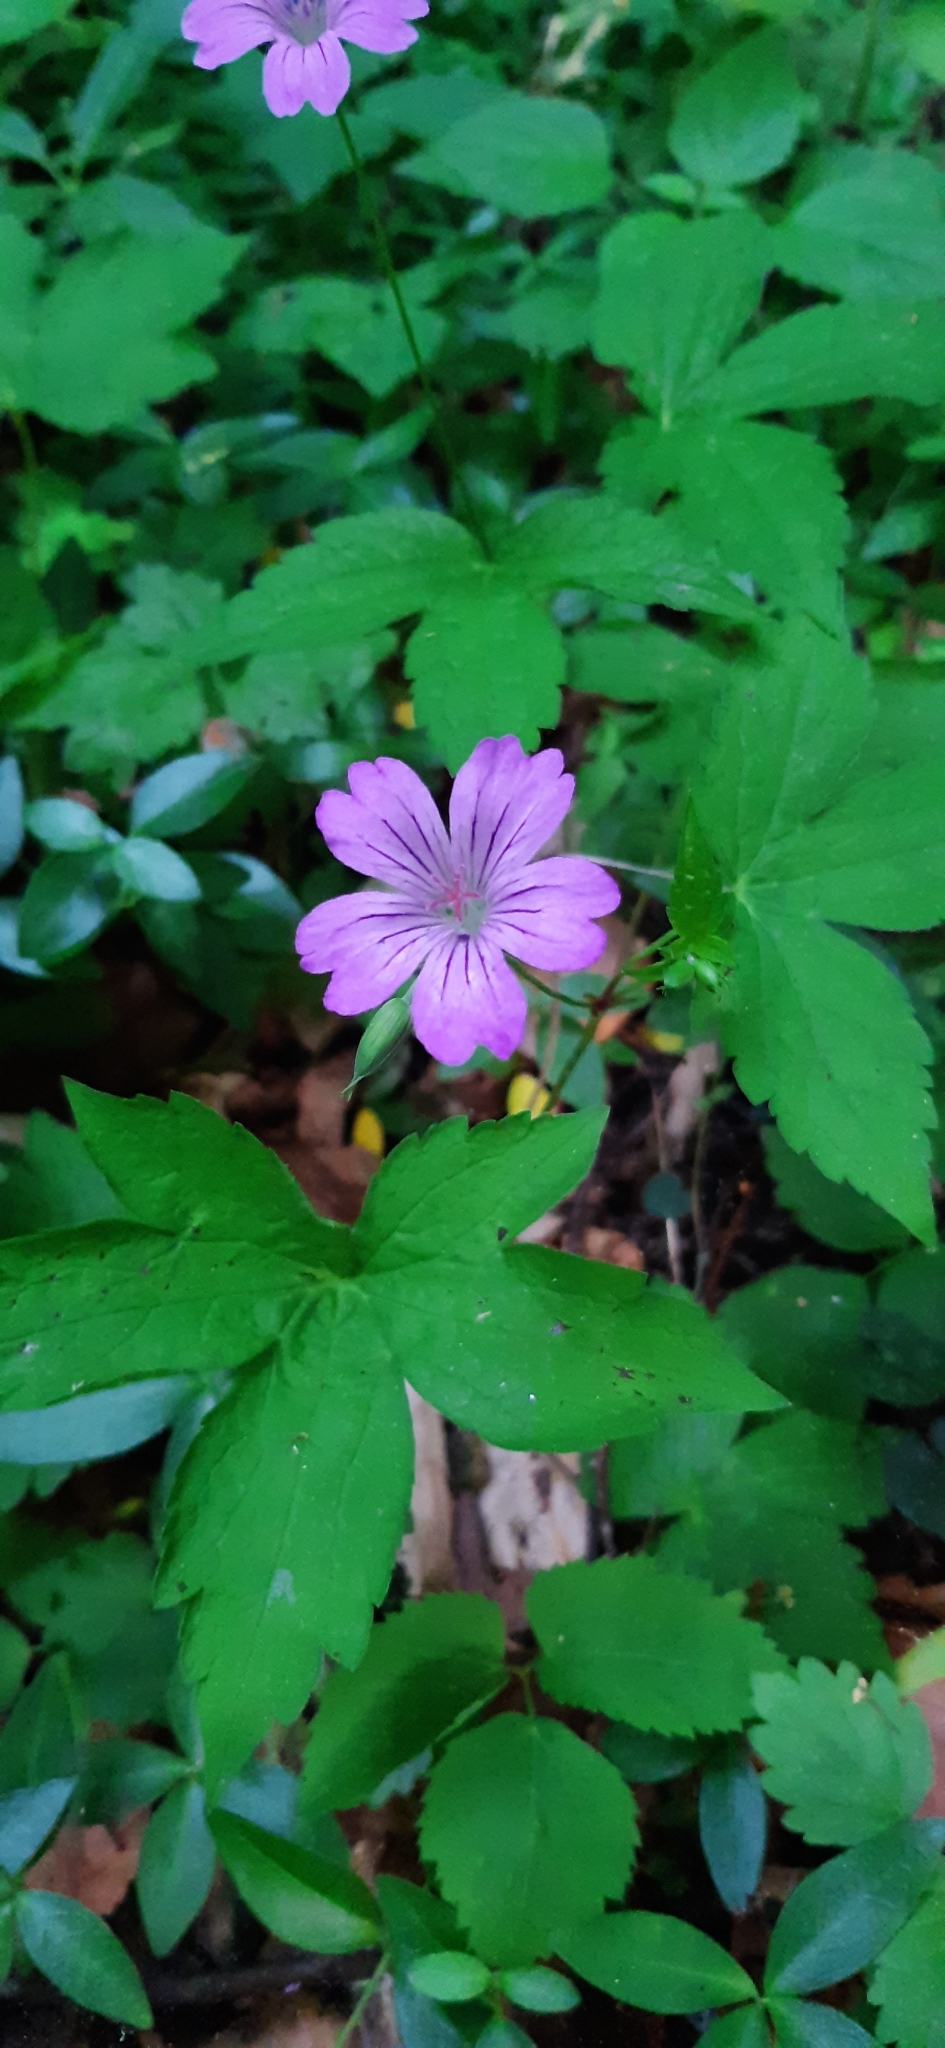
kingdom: Plantae
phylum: Tracheophyta
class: Magnoliopsida
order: Geraniales
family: Geraniaceae
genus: Geranium
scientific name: Geranium nodosum
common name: Knotted crane's-bill
